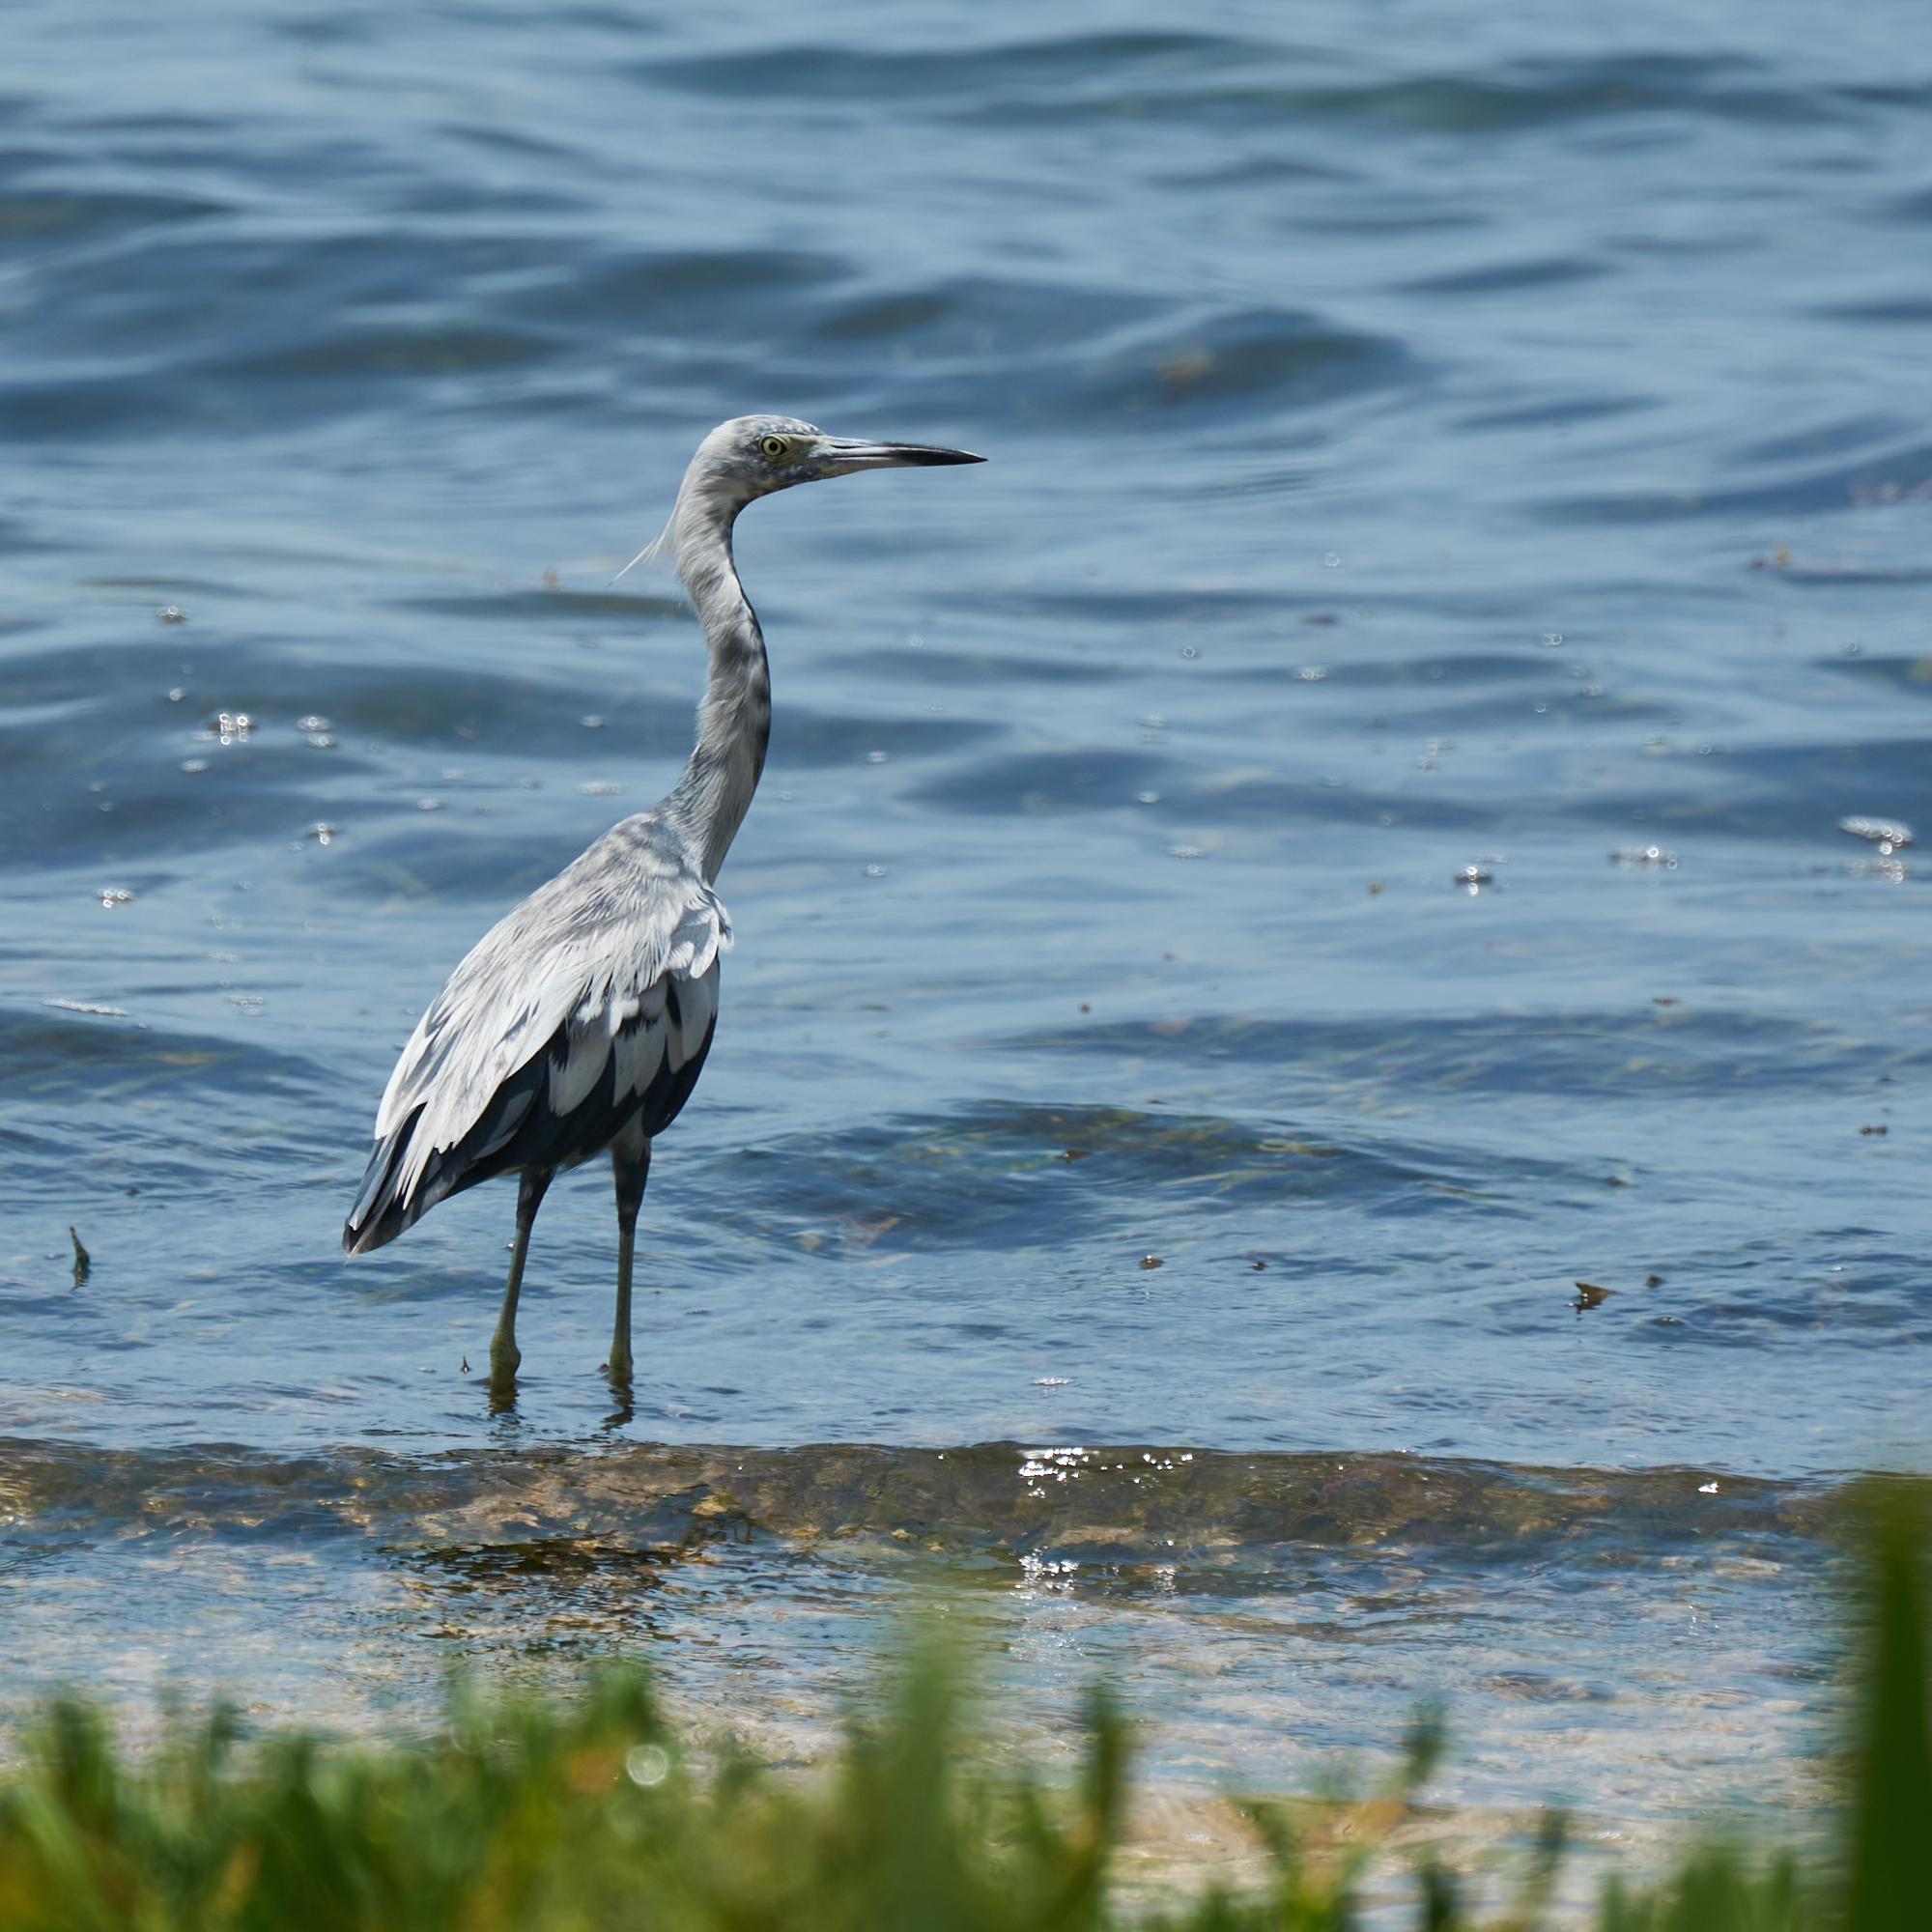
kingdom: Animalia
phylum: Chordata
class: Aves
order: Pelecaniformes
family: Ardeidae
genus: Egretta
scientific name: Egretta caerulea
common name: Little blue heron
